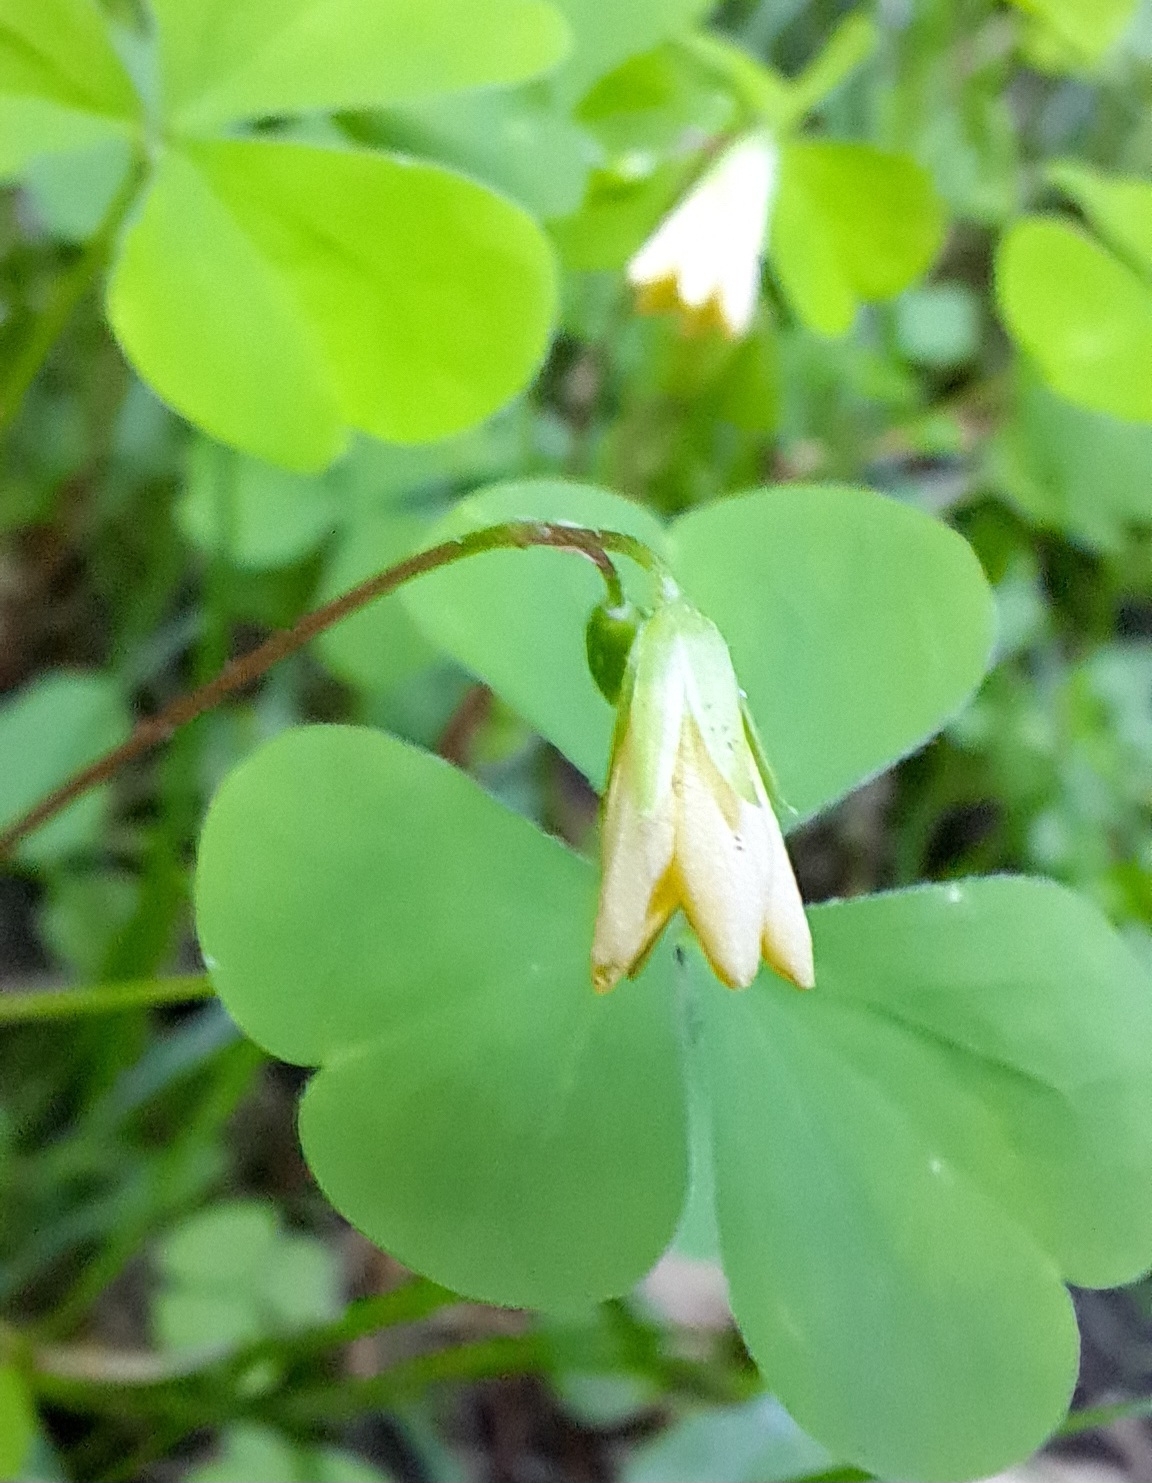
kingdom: Plantae
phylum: Tracheophyta
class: Magnoliopsida
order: Oxalidales
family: Oxalidaceae
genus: Oxalis
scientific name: Oxalis stricta
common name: Upright yellow-sorrel
